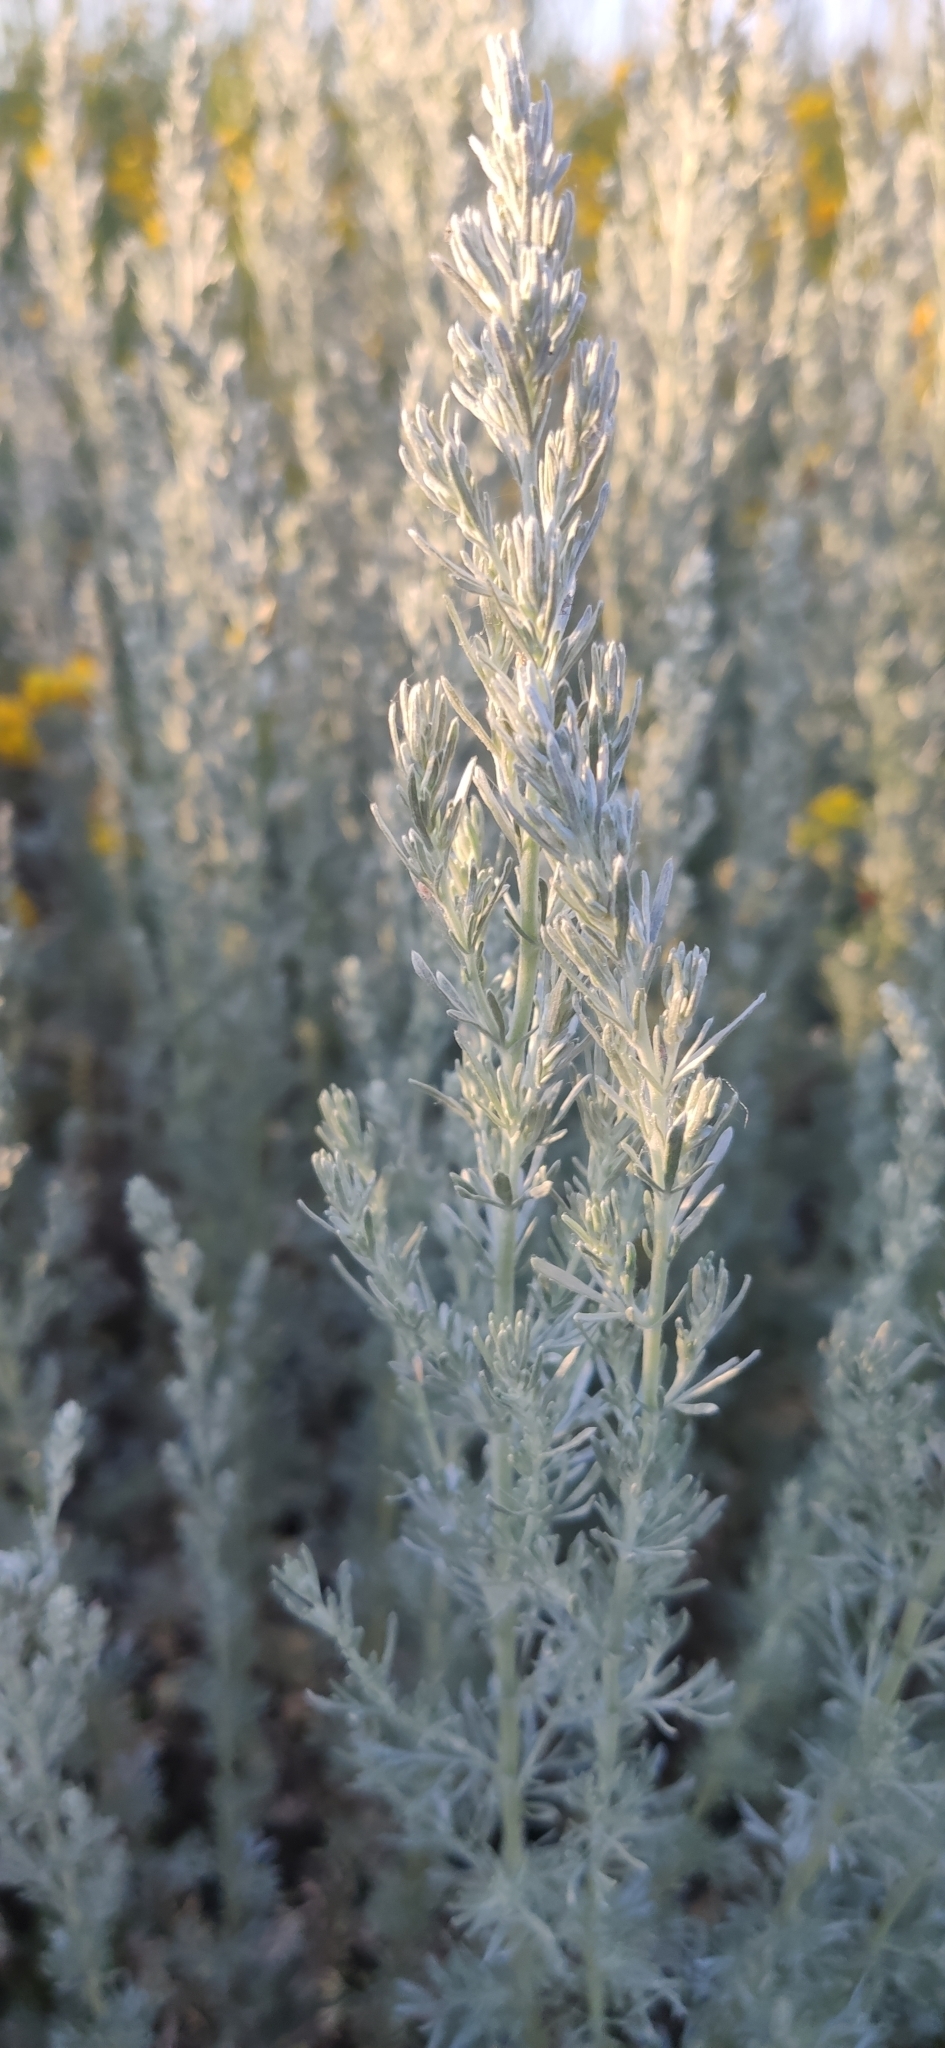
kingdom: Plantae
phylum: Tracheophyta
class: Magnoliopsida
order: Asterales
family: Asteraceae
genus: Artemisia
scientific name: Artemisia austriaca
